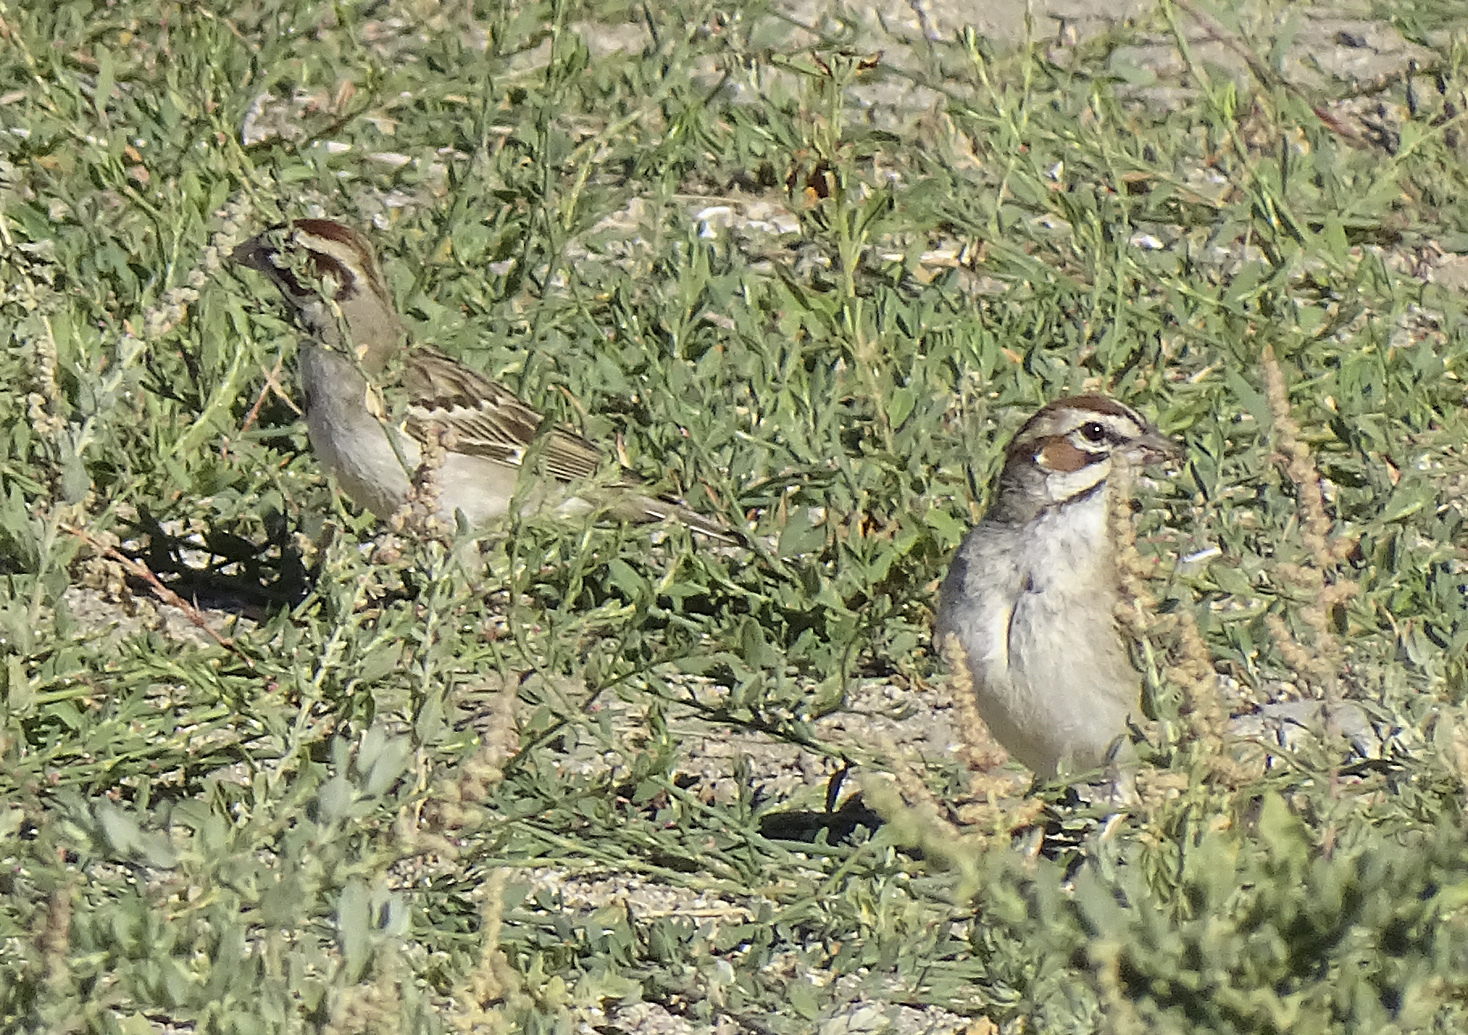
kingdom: Animalia
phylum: Chordata
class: Aves
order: Passeriformes
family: Passerellidae
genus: Chondestes
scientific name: Chondestes grammacus
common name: Lark sparrow
